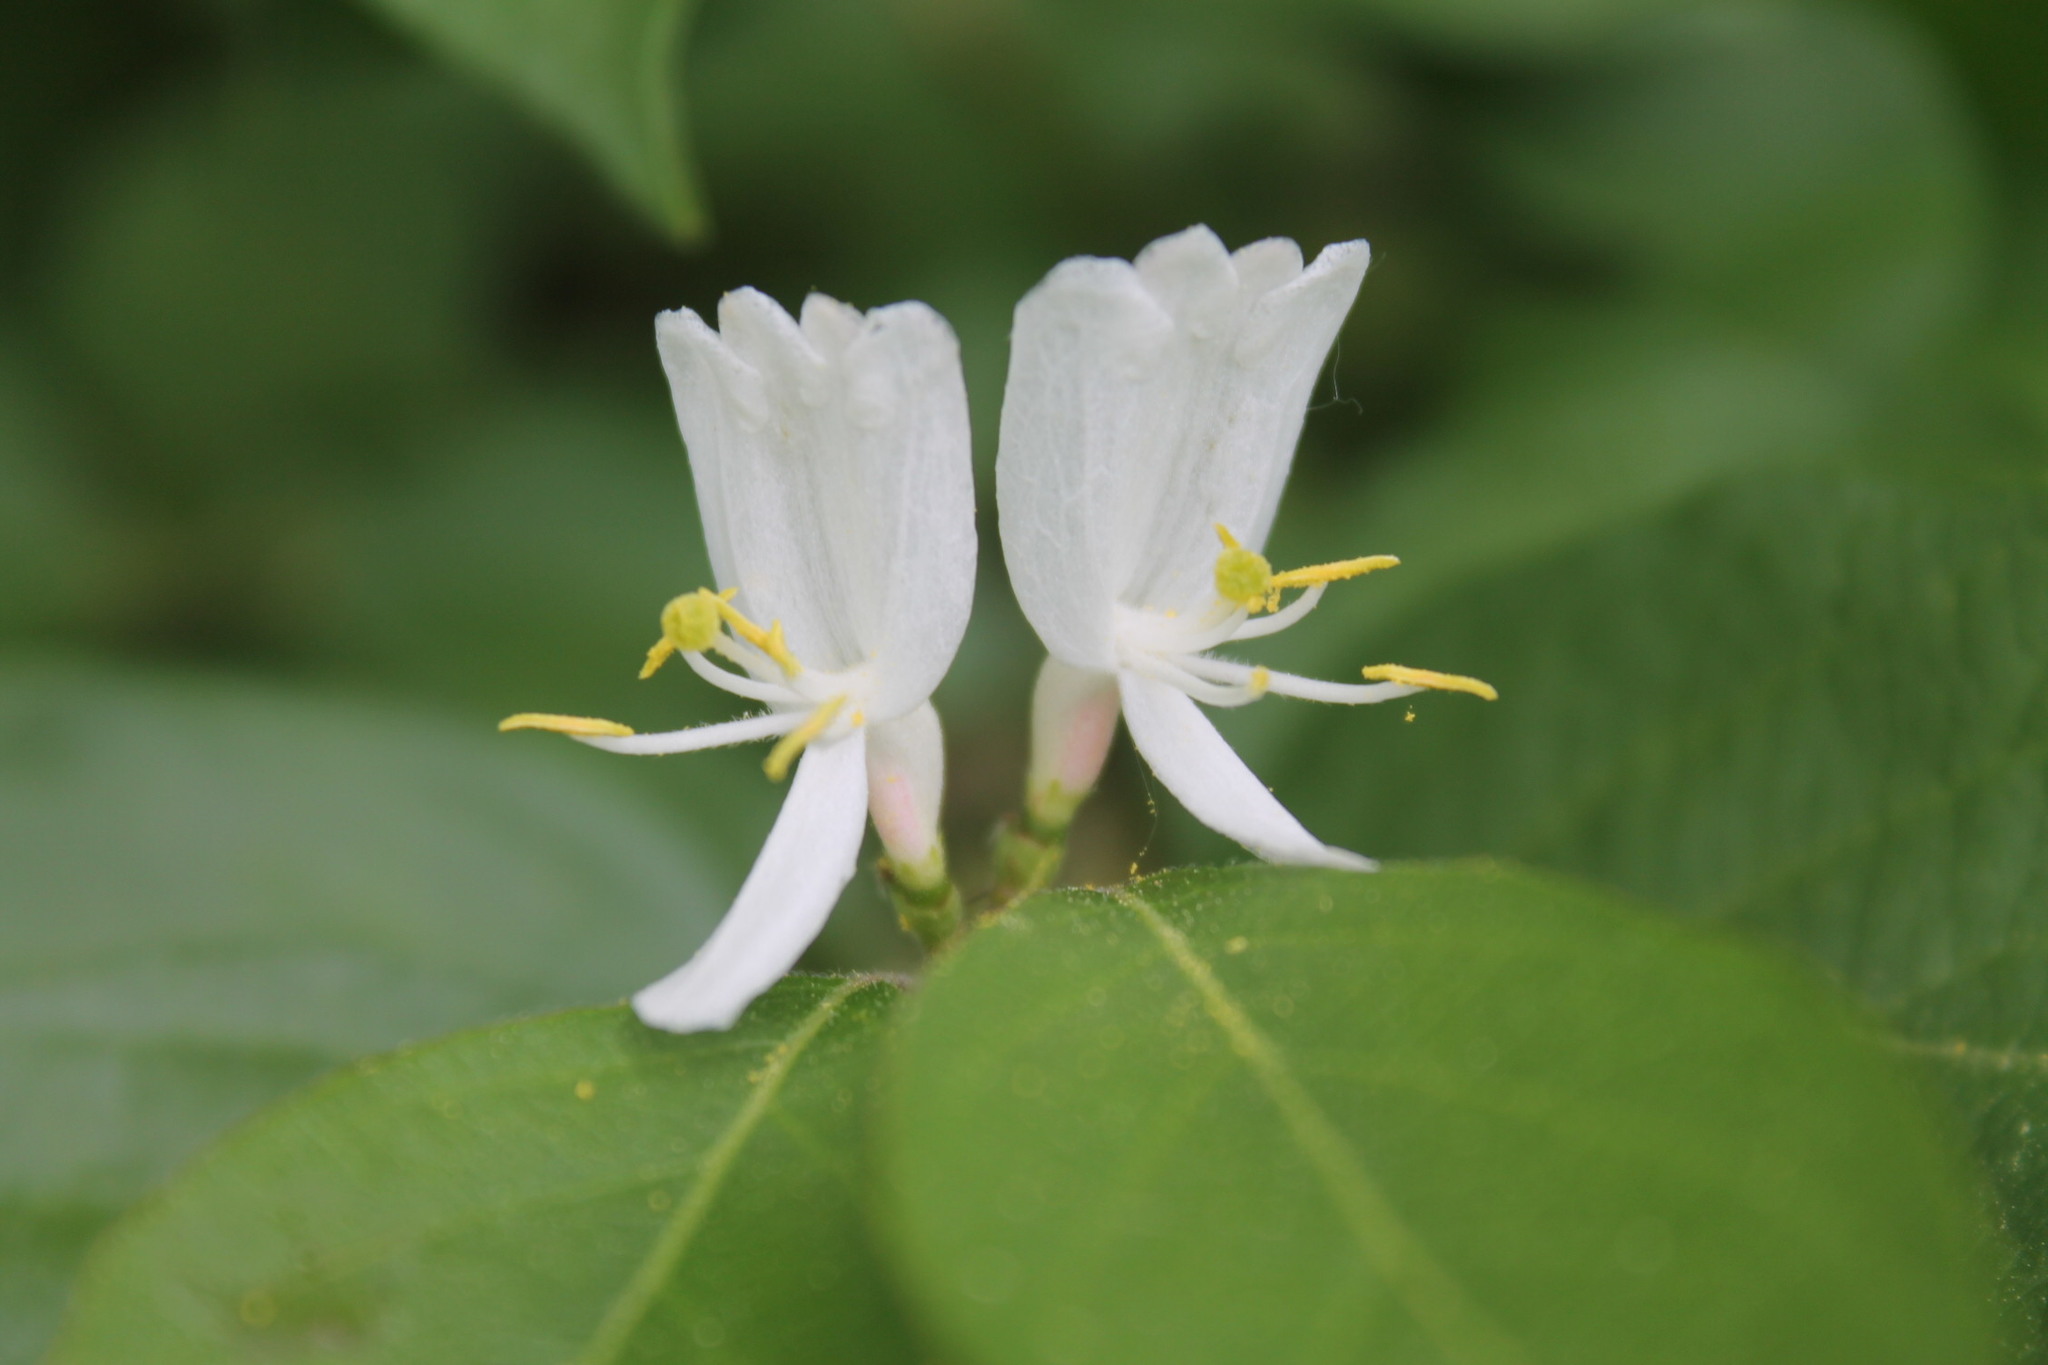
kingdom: Plantae
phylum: Tracheophyta
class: Magnoliopsida
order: Dipsacales
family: Caprifoliaceae
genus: Lonicera
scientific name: Lonicera maackii
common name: Amur honeysuckle
